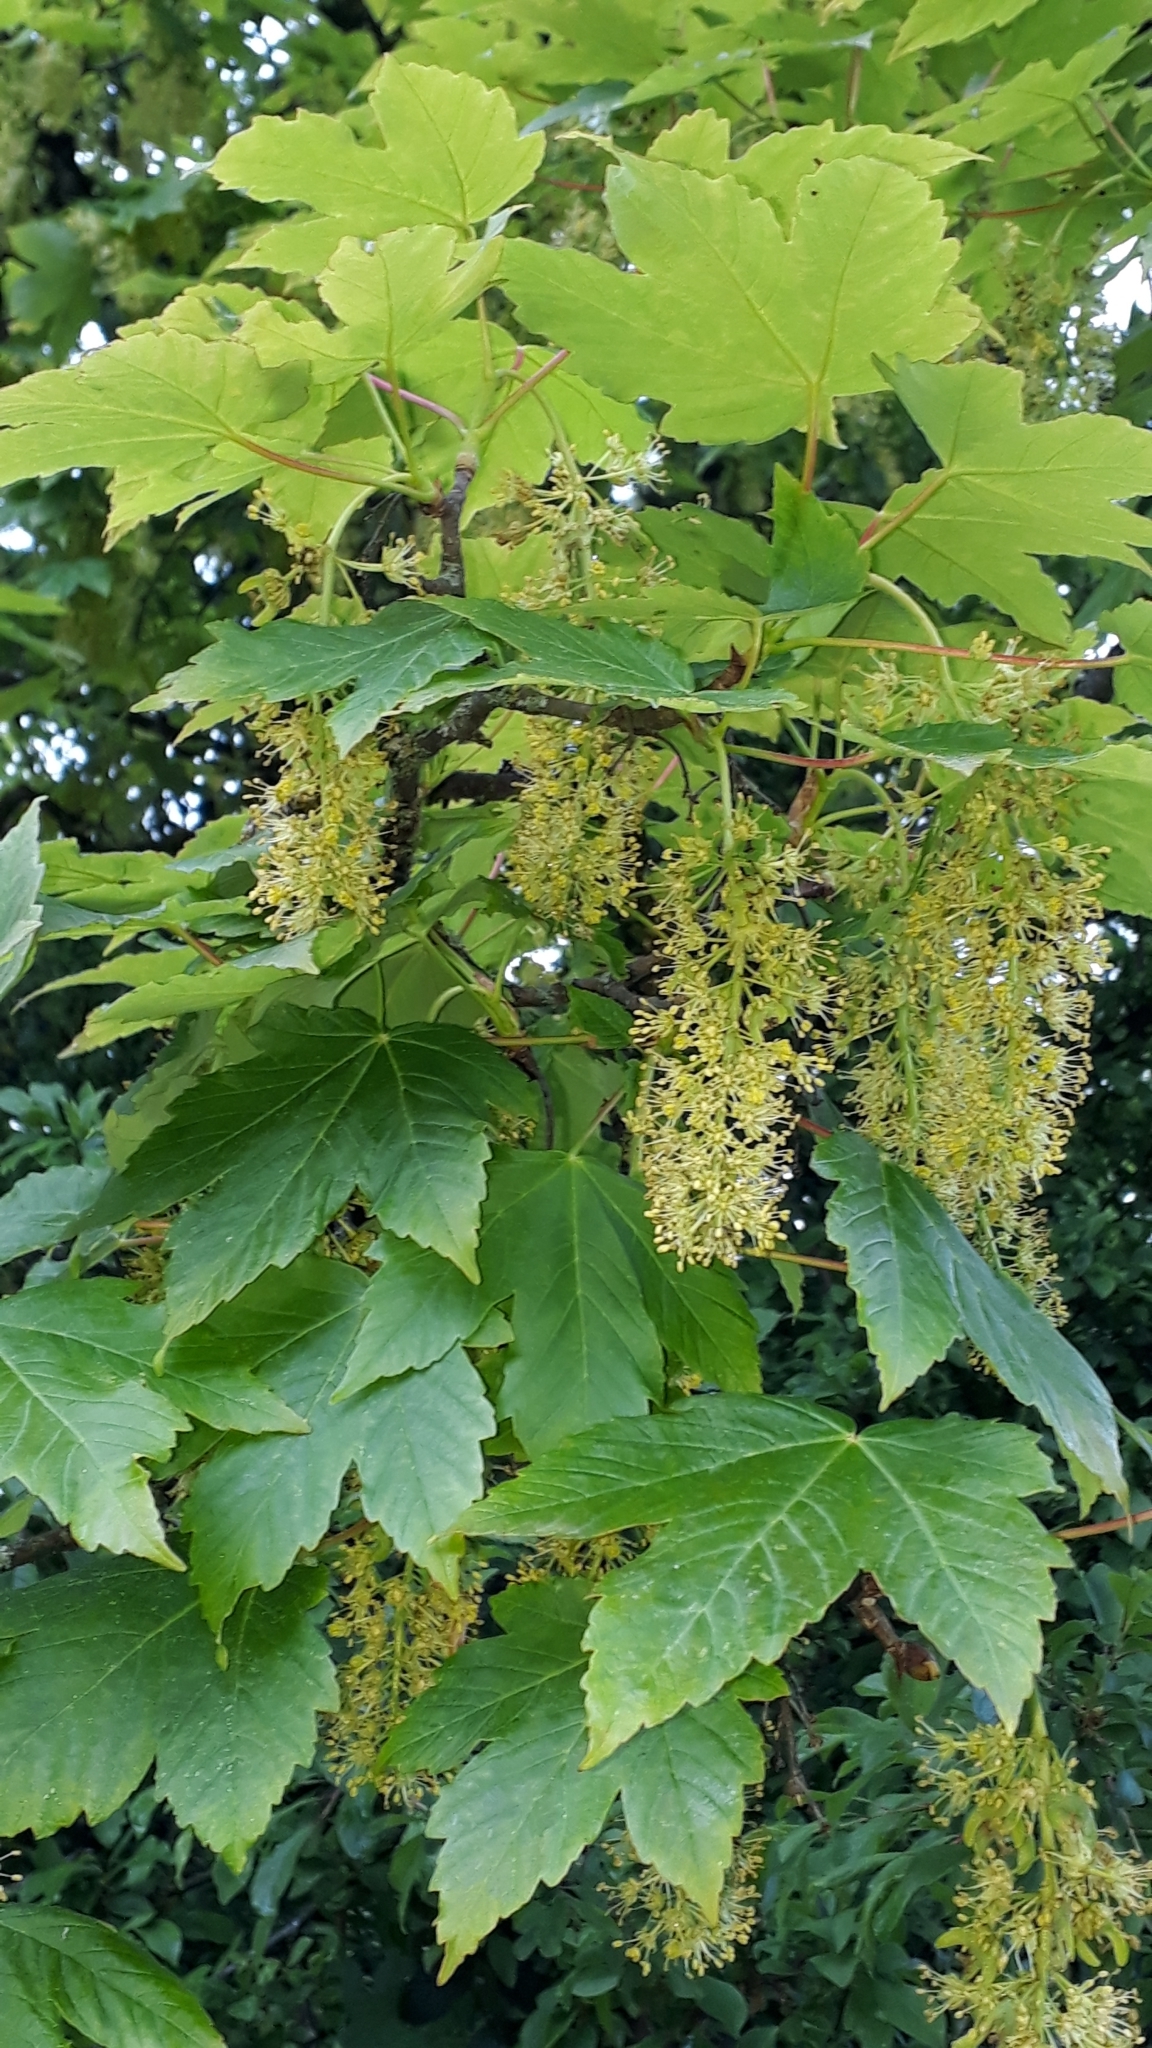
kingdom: Plantae
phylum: Tracheophyta
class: Magnoliopsida
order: Sapindales
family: Sapindaceae
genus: Acer
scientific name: Acer pseudoplatanus
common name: Sycamore
